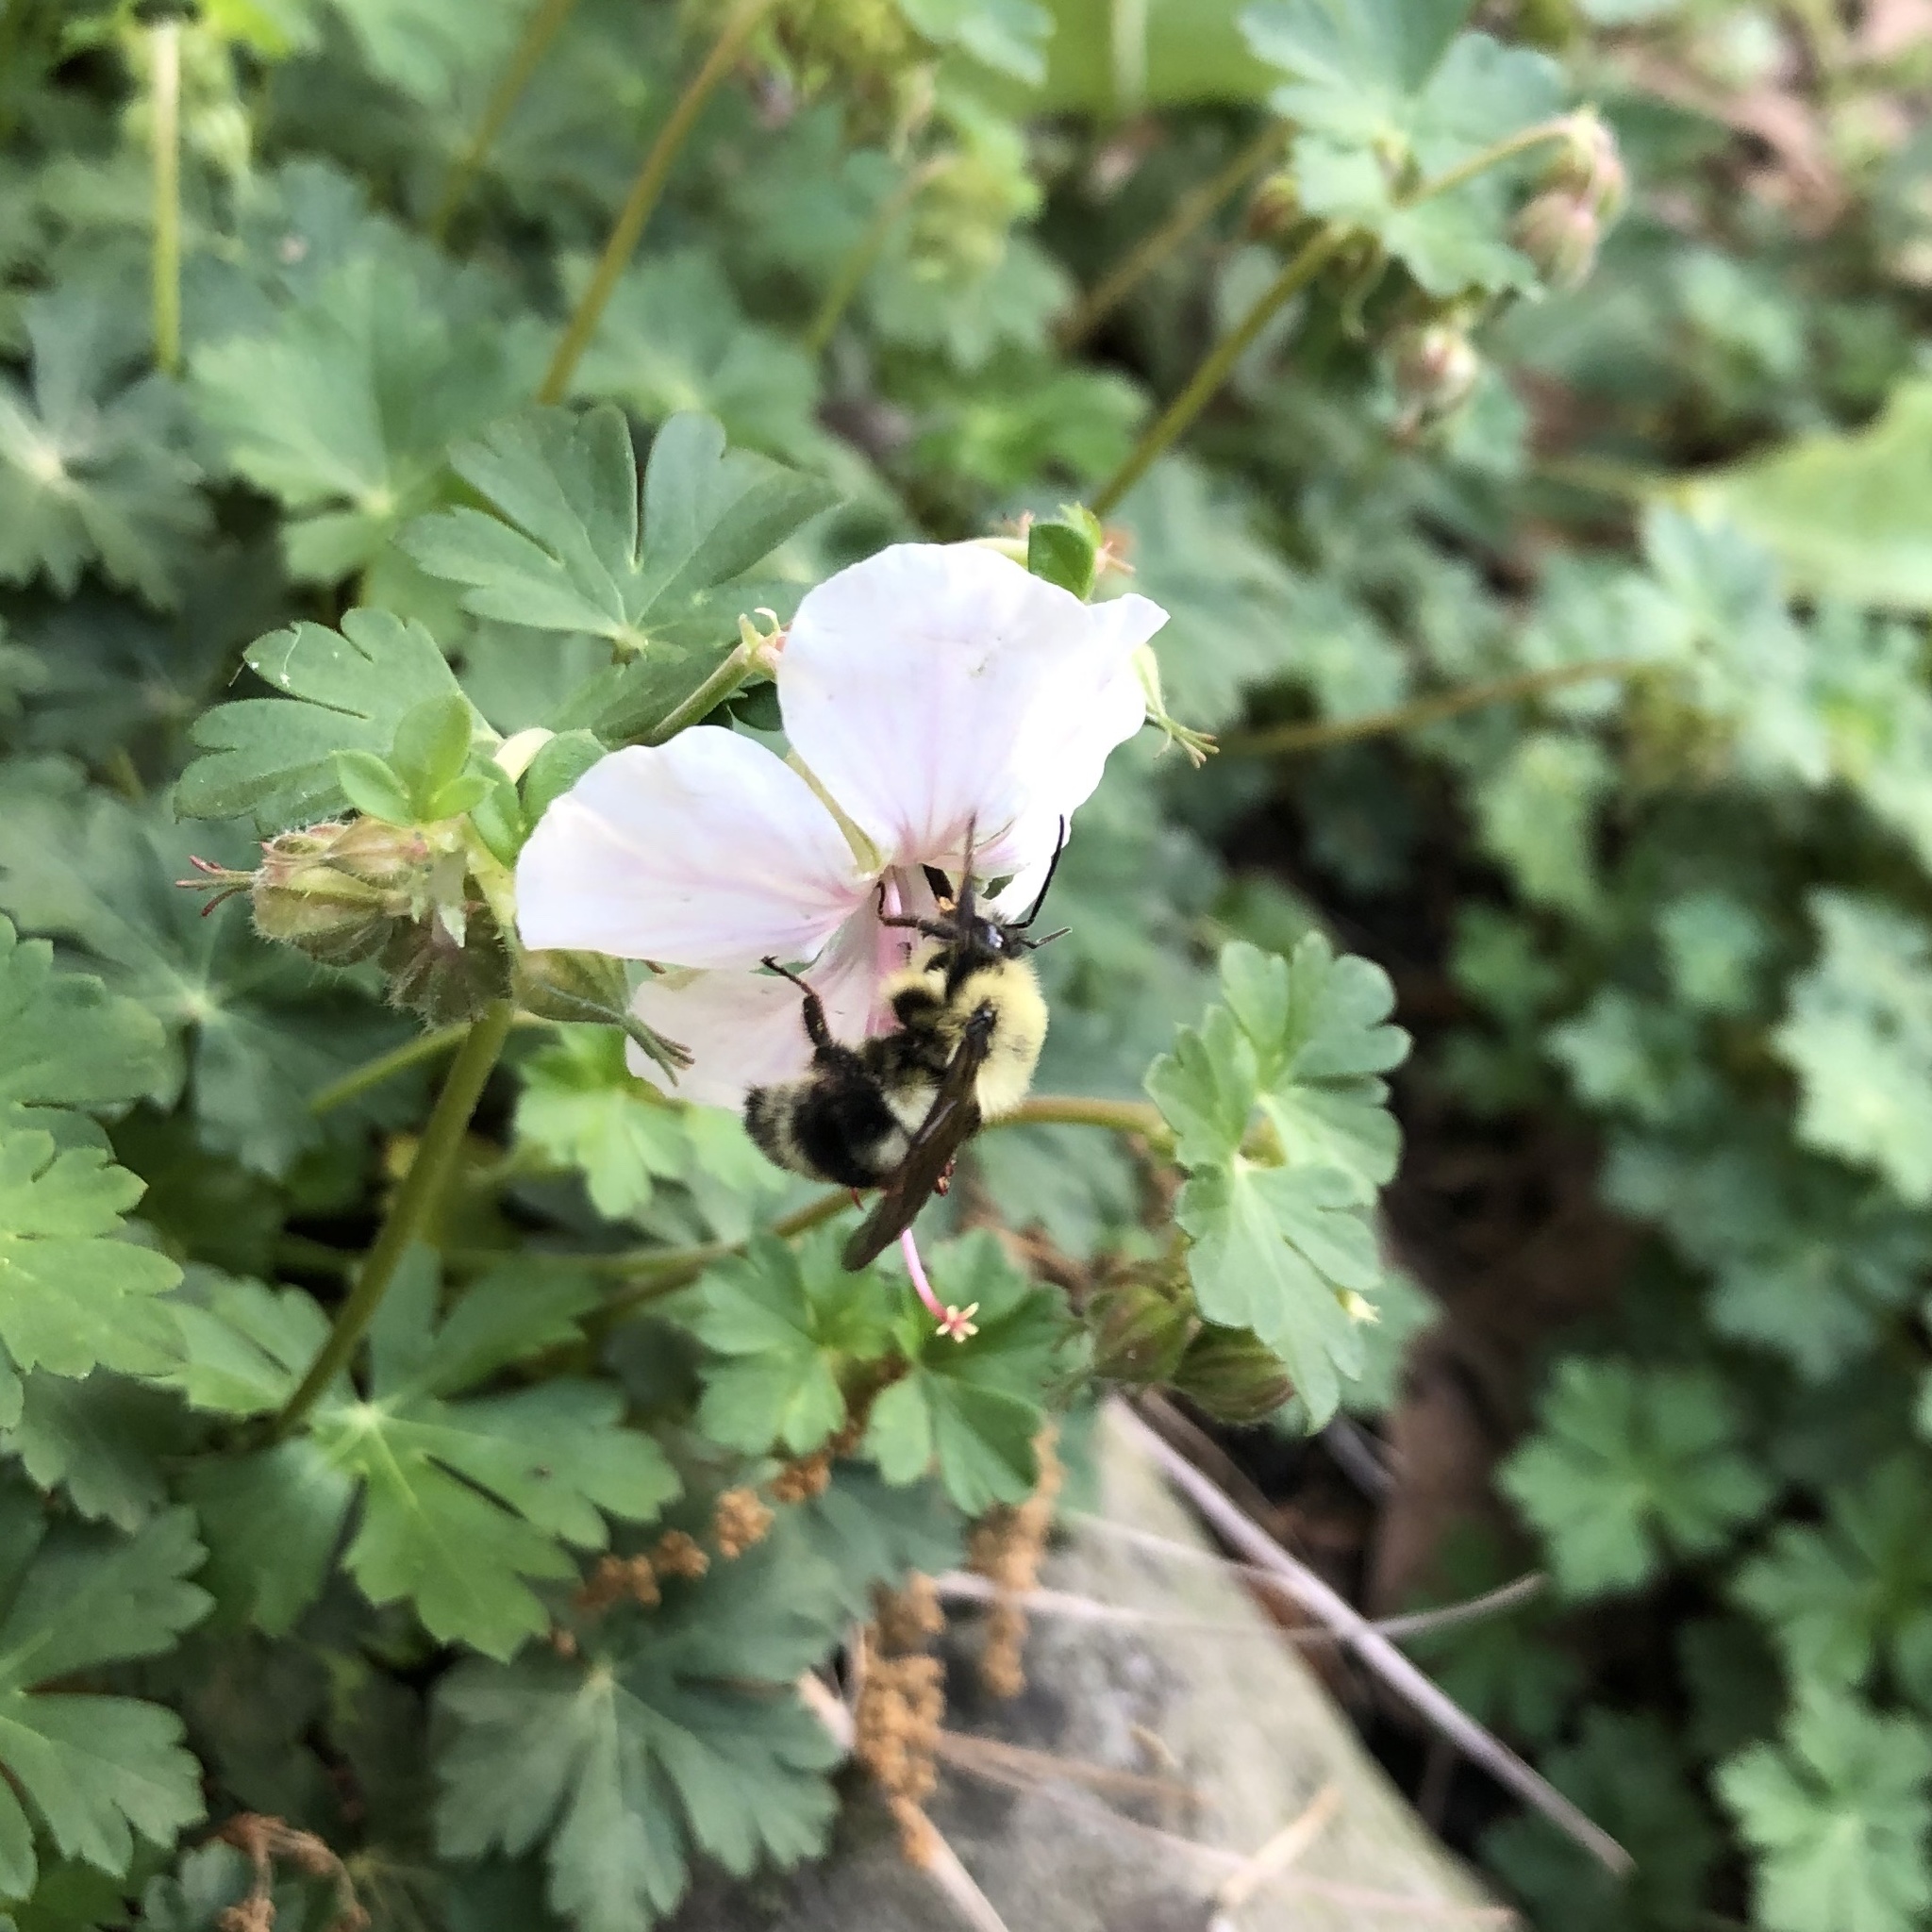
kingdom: Animalia
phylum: Arthropoda
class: Insecta
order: Hymenoptera
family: Apidae
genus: Bombus
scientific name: Bombus bimaculatus
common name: Two-spotted bumble bee
